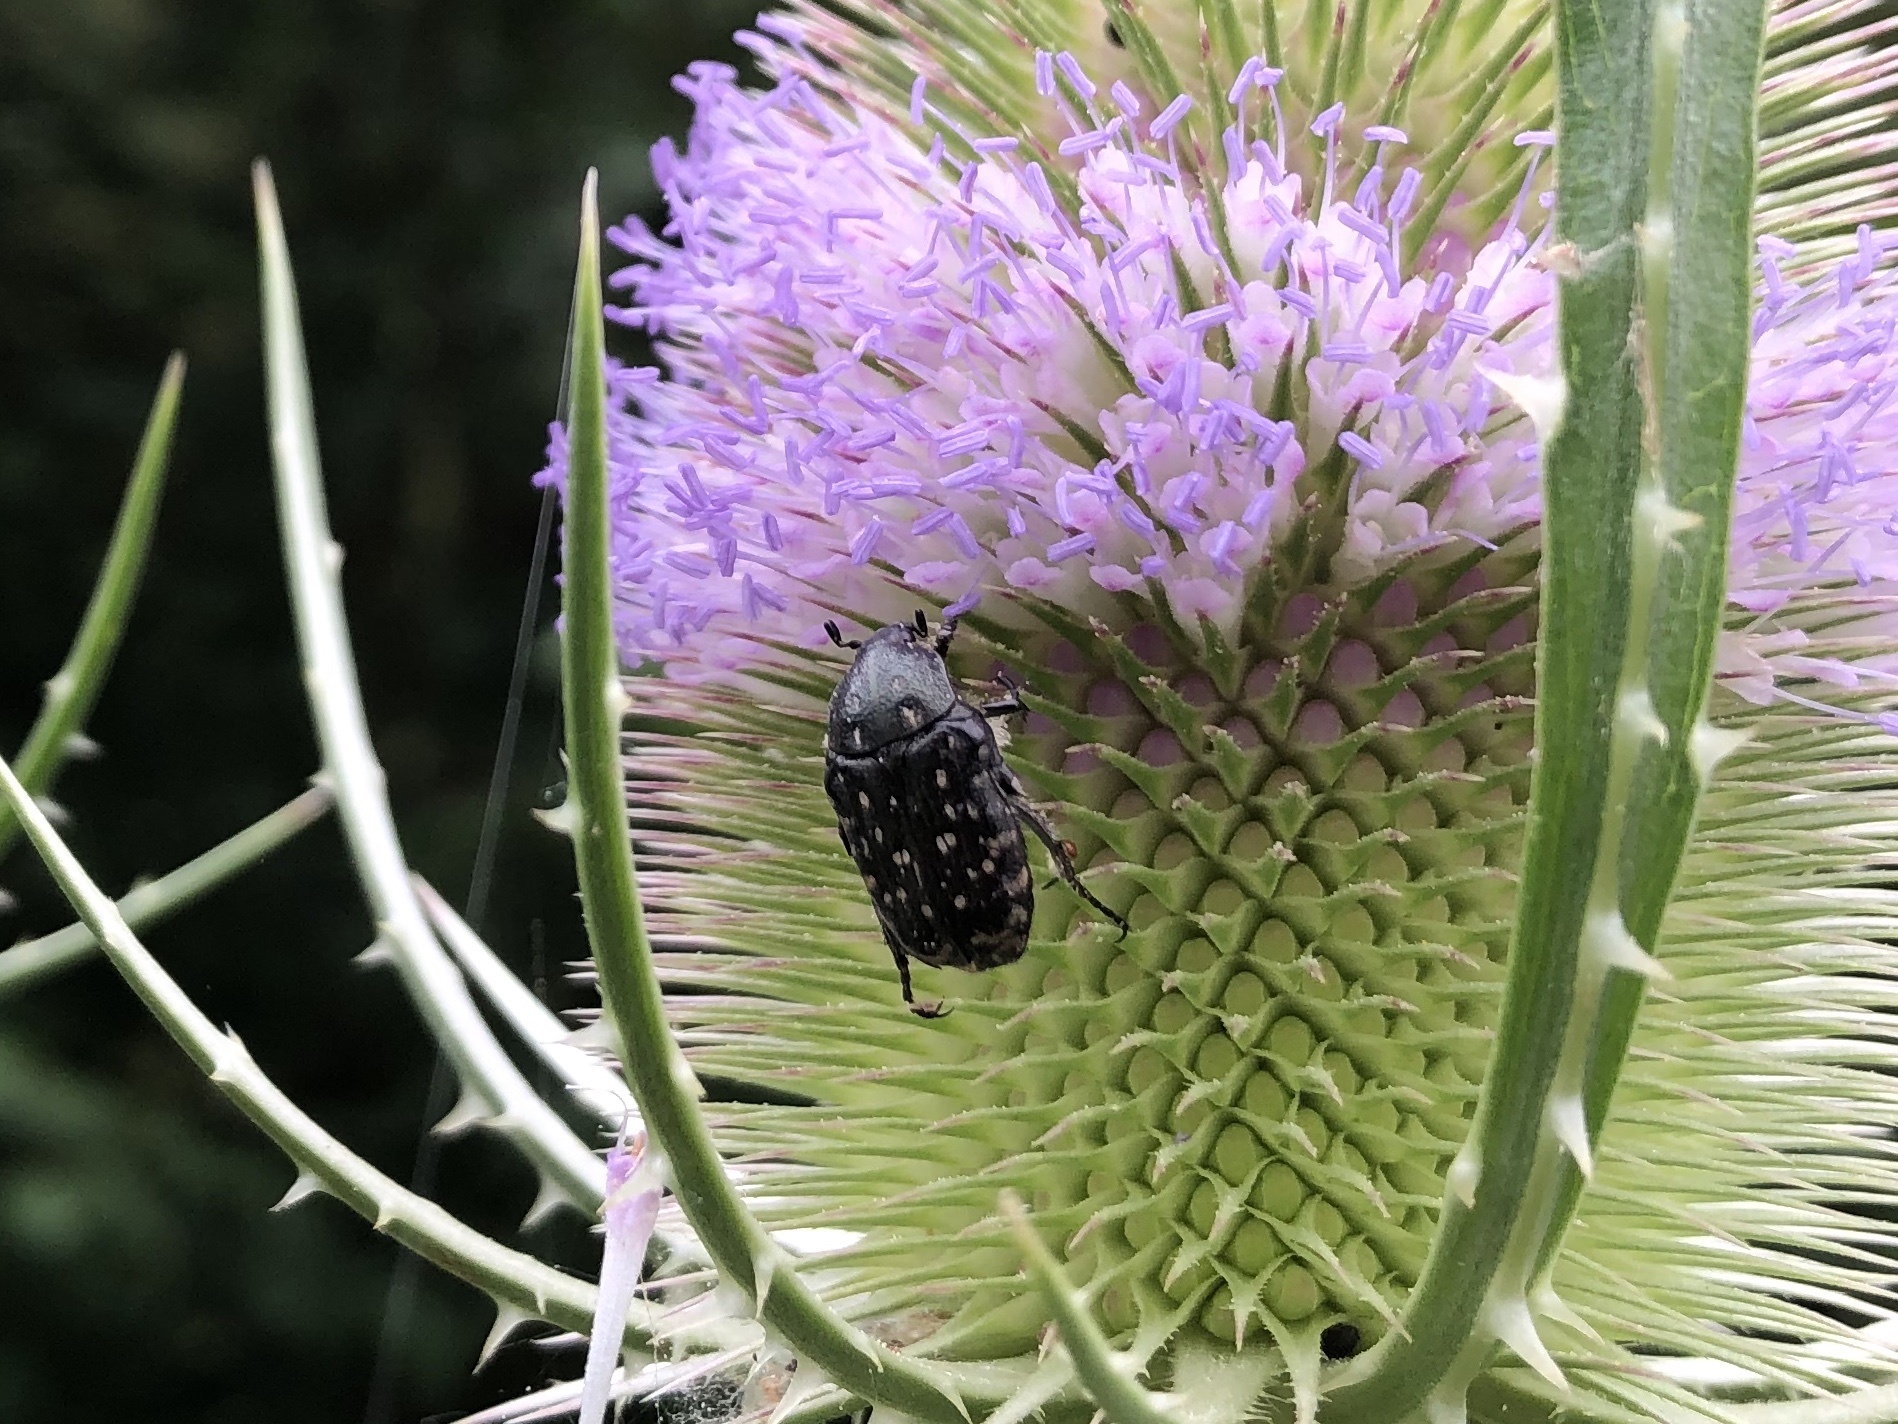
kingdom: Animalia
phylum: Arthropoda
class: Insecta
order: Coleoptera
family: Scarabaeidae
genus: Oxythyrea
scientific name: Oxythyrea funesta
